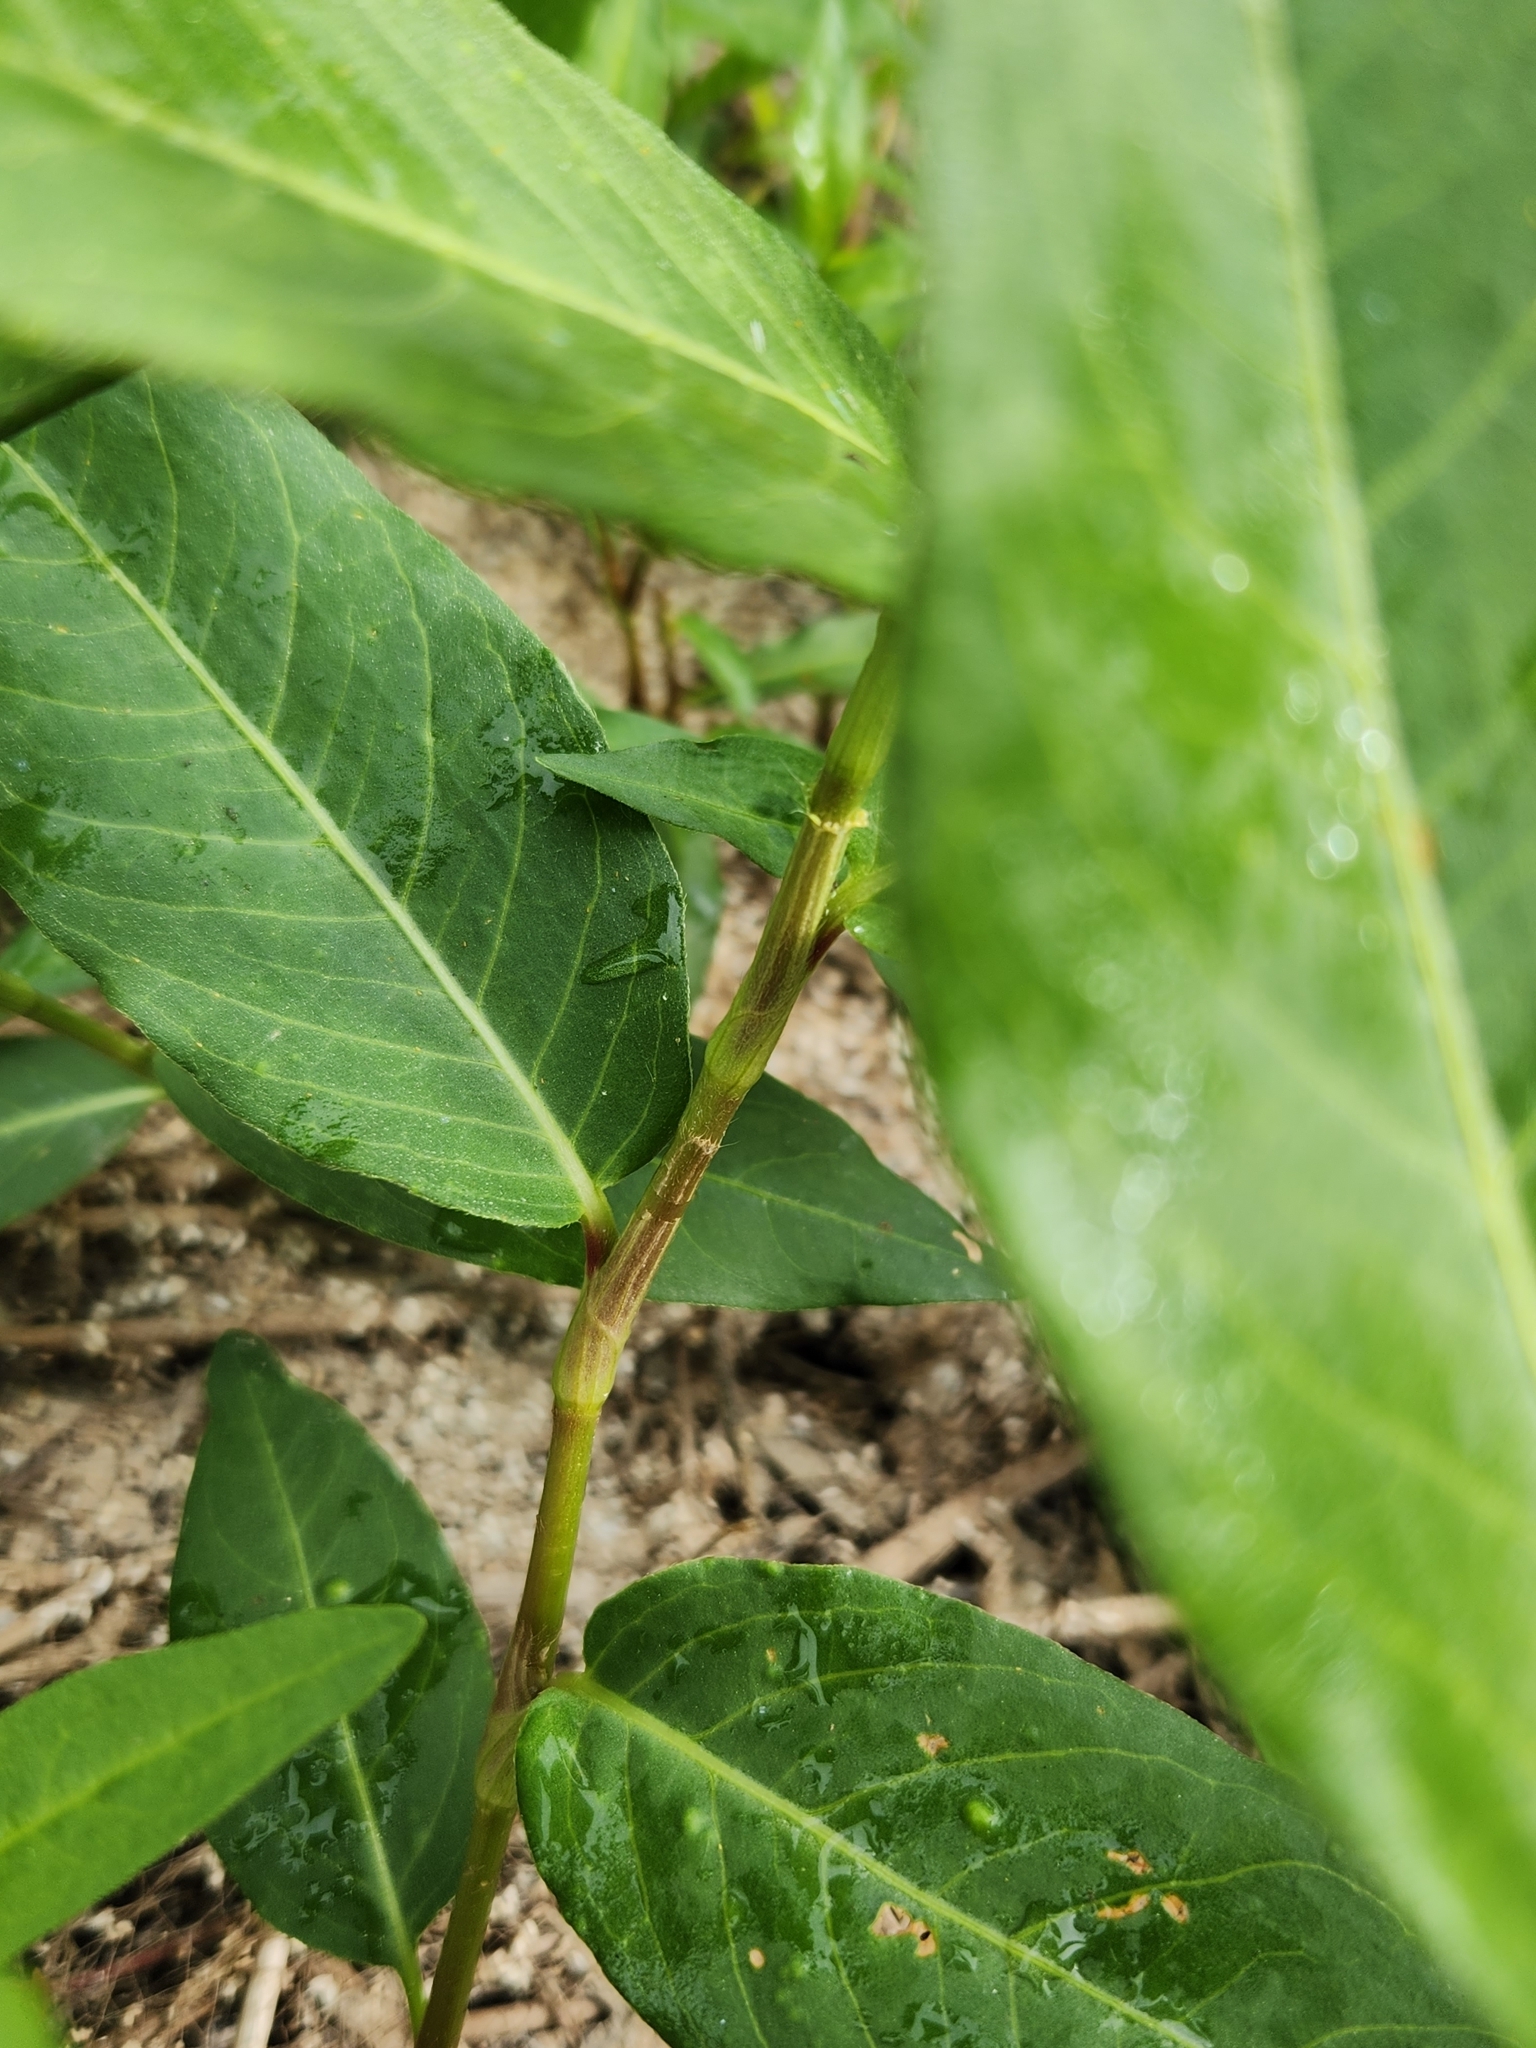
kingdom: Plantae
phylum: Tracheophyta
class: Magnoliopsida
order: Caryophyllales
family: Polygonaceae
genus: Persicaria
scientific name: Persicaria amphibia
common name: Amphibious bistort
